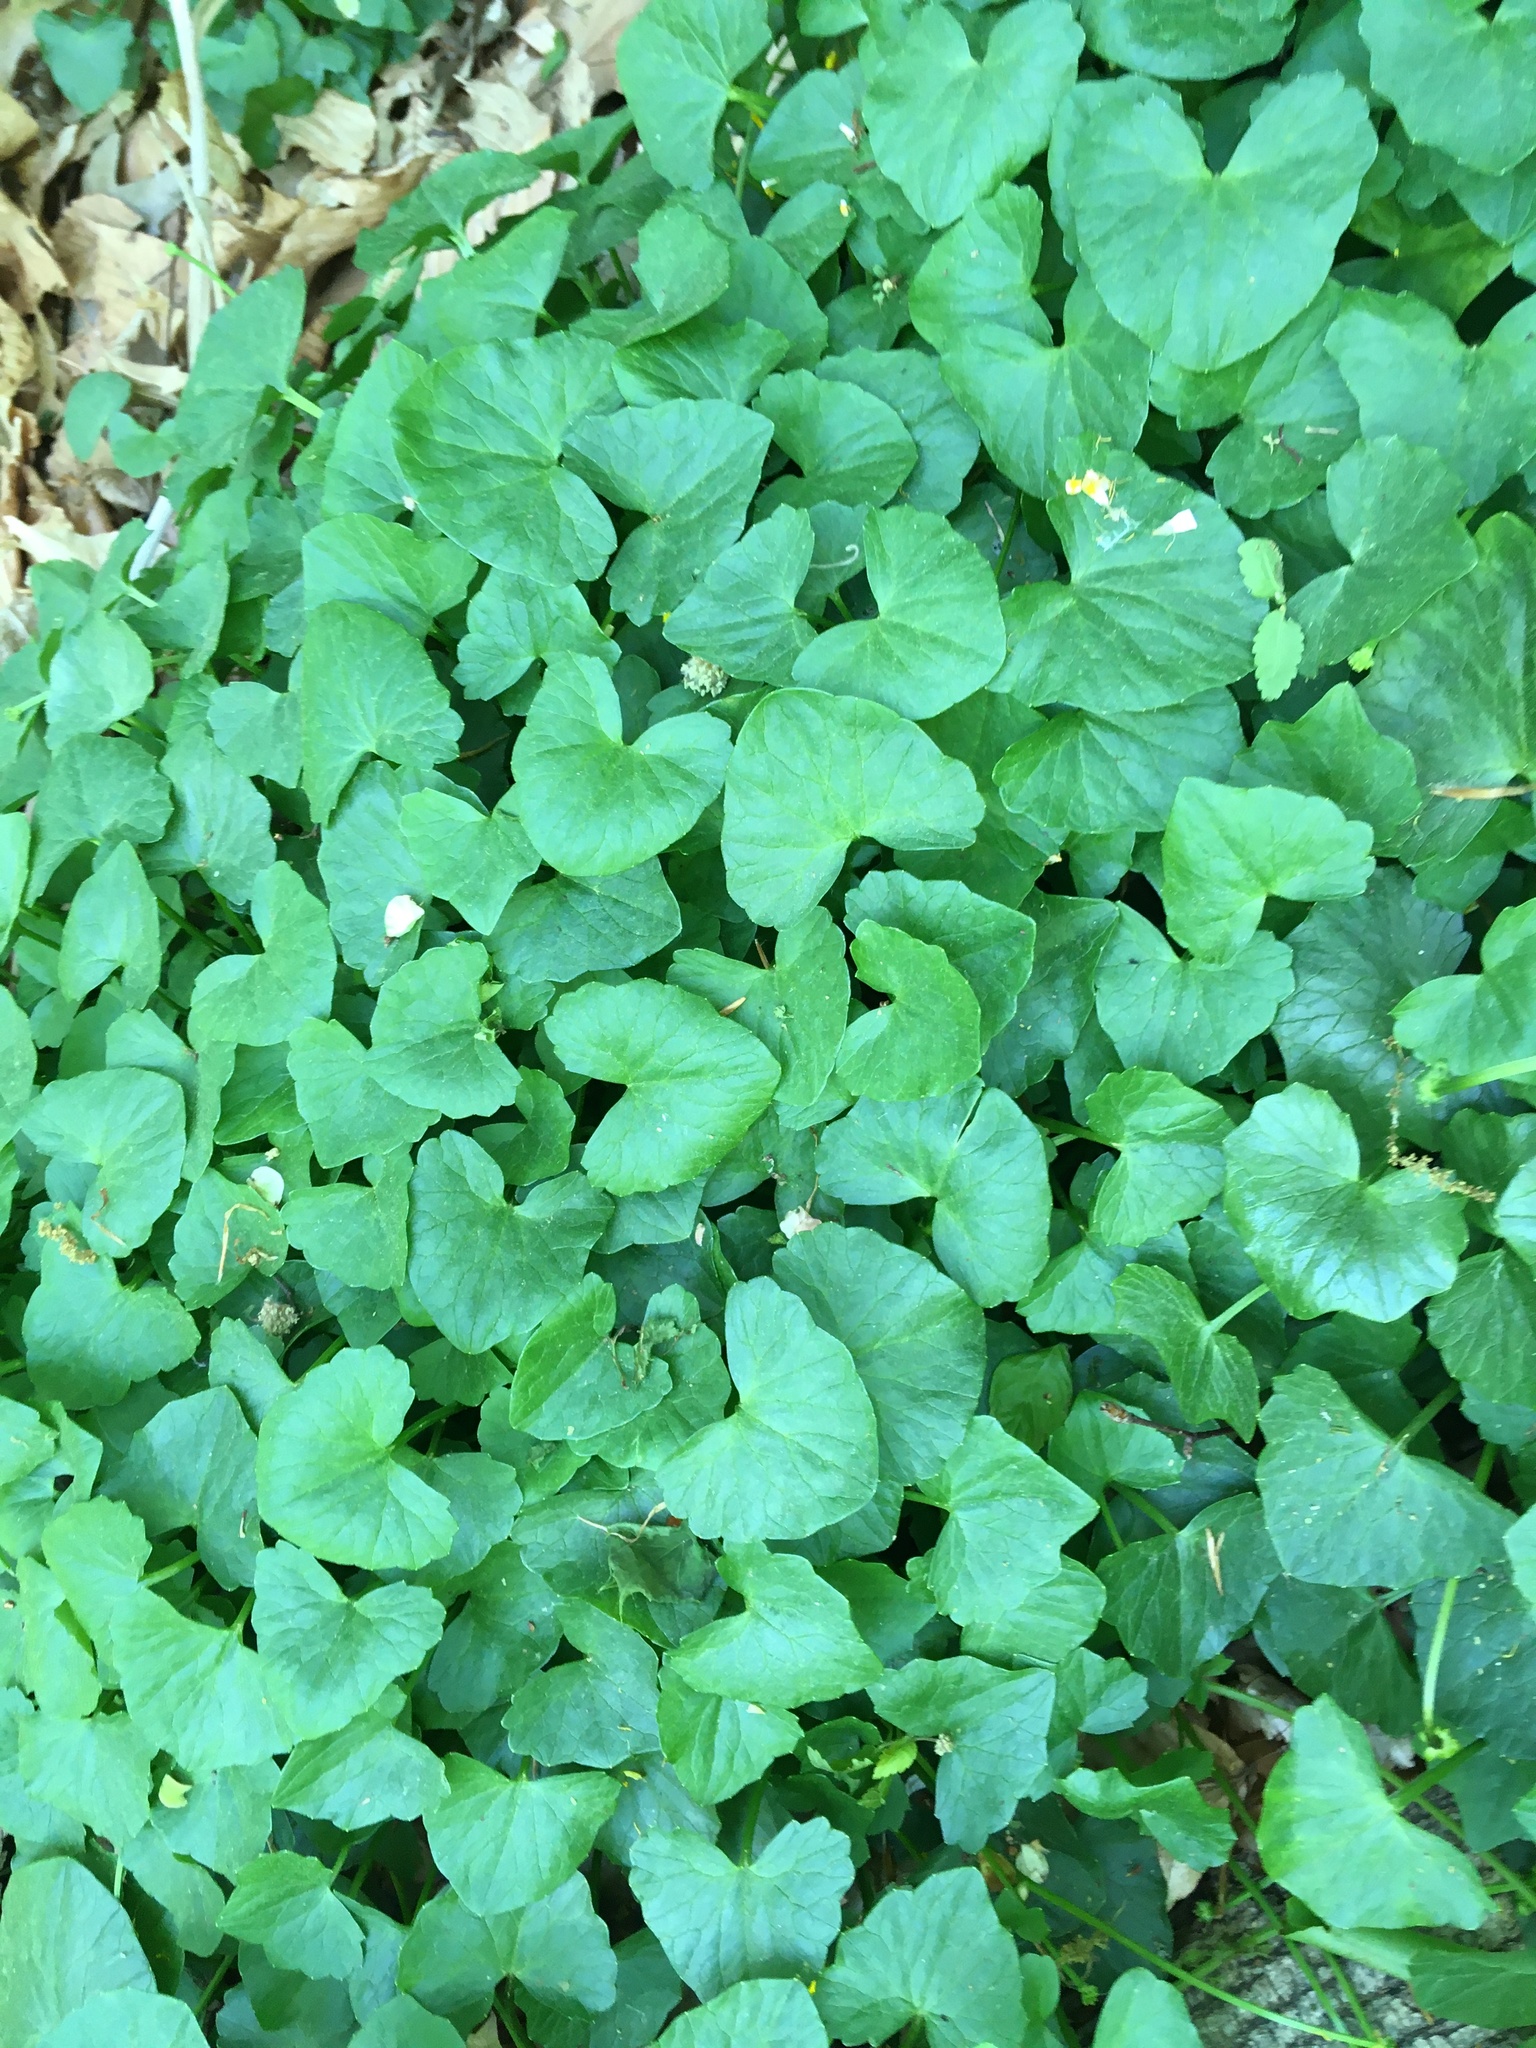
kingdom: Plantae
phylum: Tracheophyta
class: Magnoliopsida
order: Ranunculales
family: Ranunculaceae
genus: Ficaria
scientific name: Ficaria verna
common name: Lesser celandine
